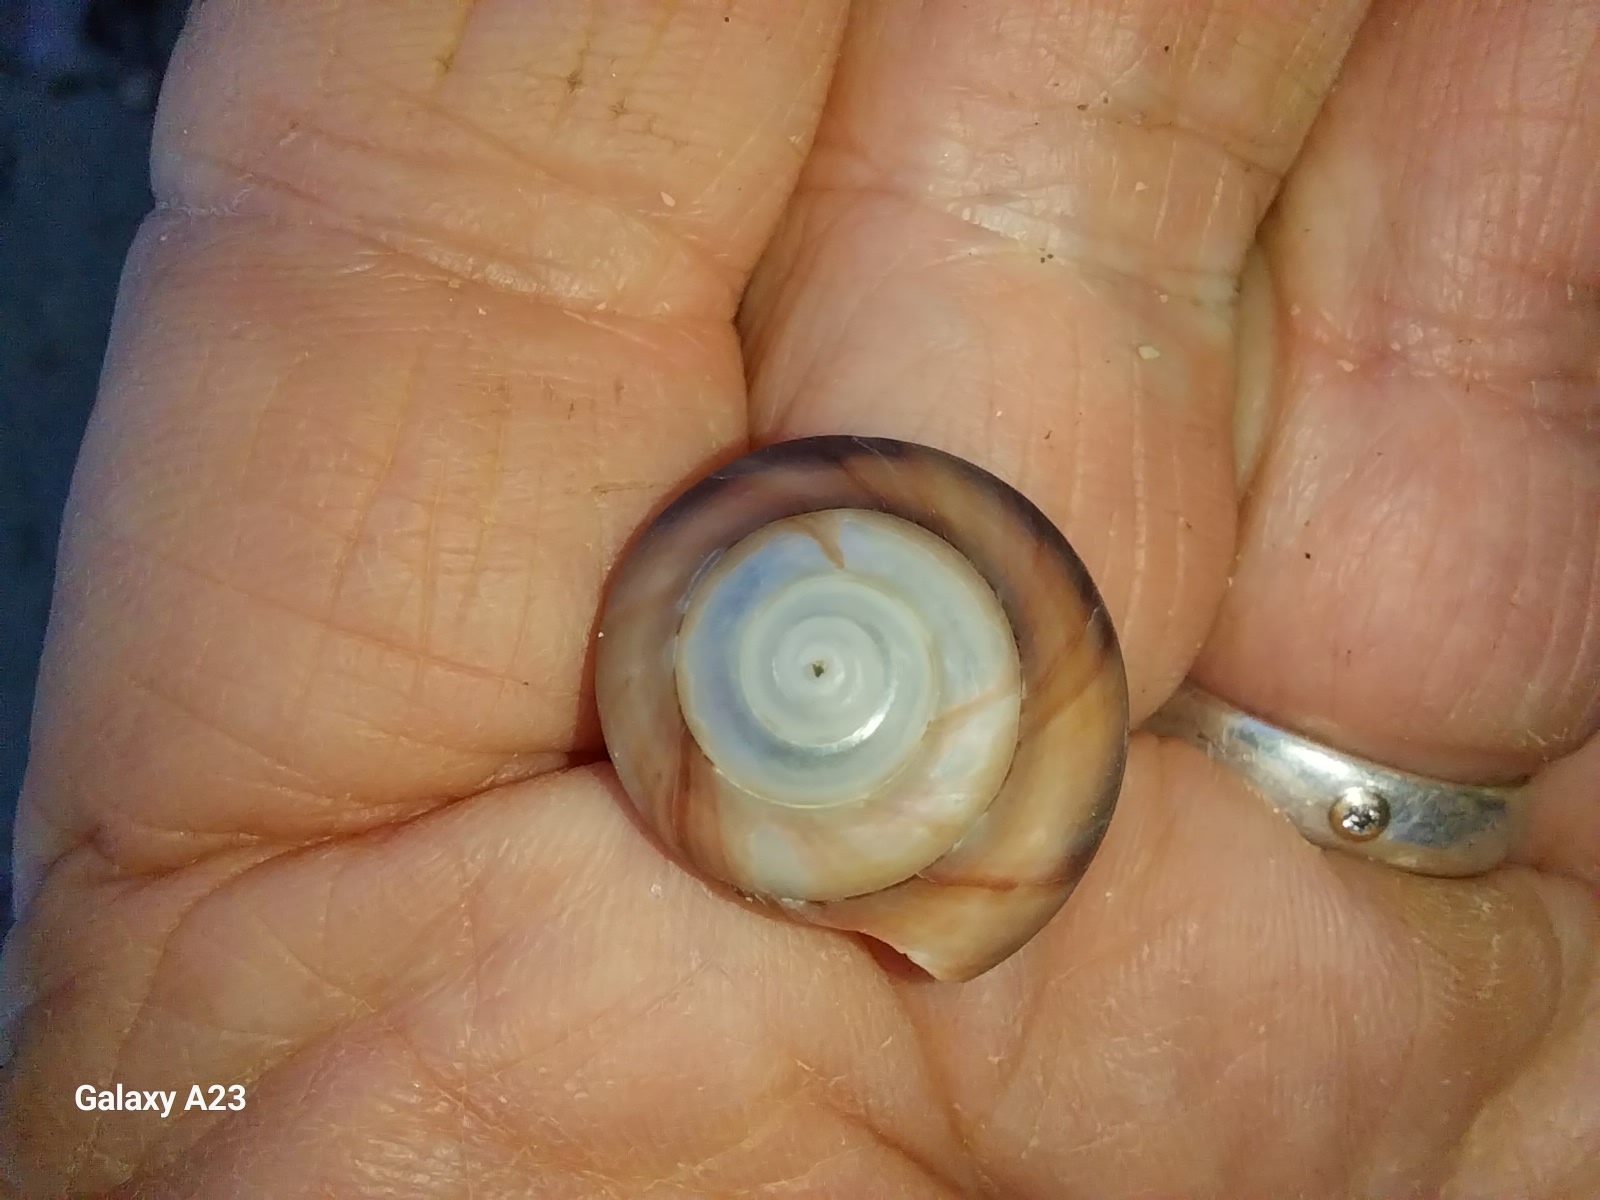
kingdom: Animalia
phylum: Mollusca
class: Gastropoda
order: Trochida
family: Trochidae
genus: Zethalia
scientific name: Zethalia zelandica
